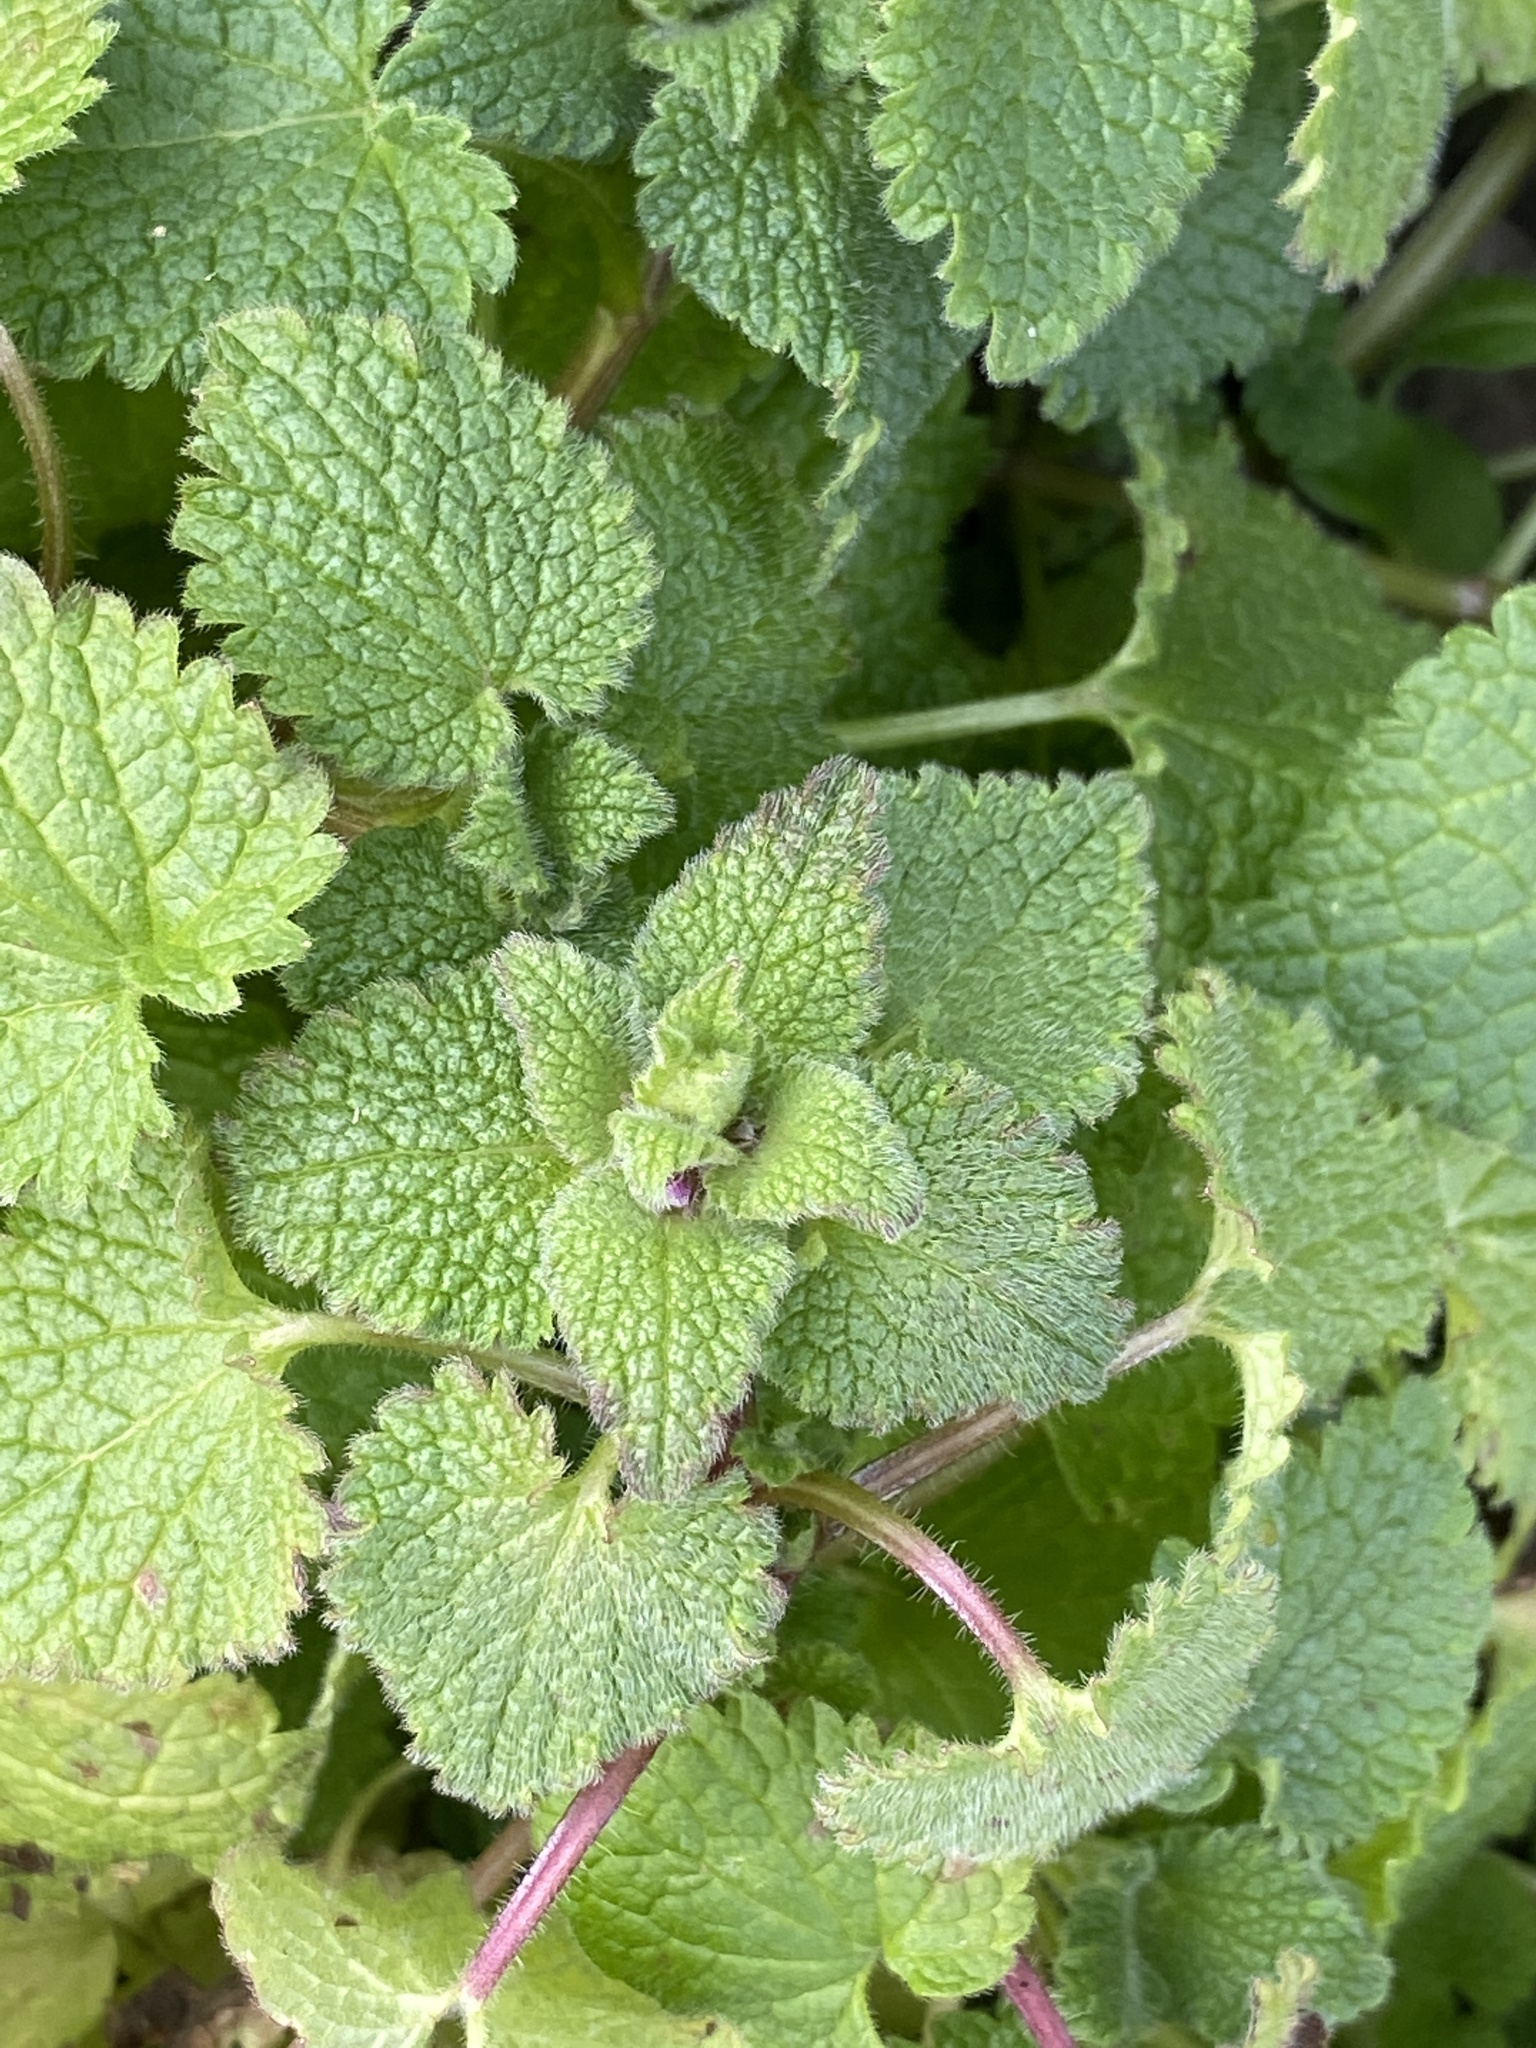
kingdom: Plantae
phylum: Tracheophyta
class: Magnoliopsida
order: Lamiales
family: Lamiaceae
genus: Lamium
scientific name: Lamium purpureum
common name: Red dead-nettle
